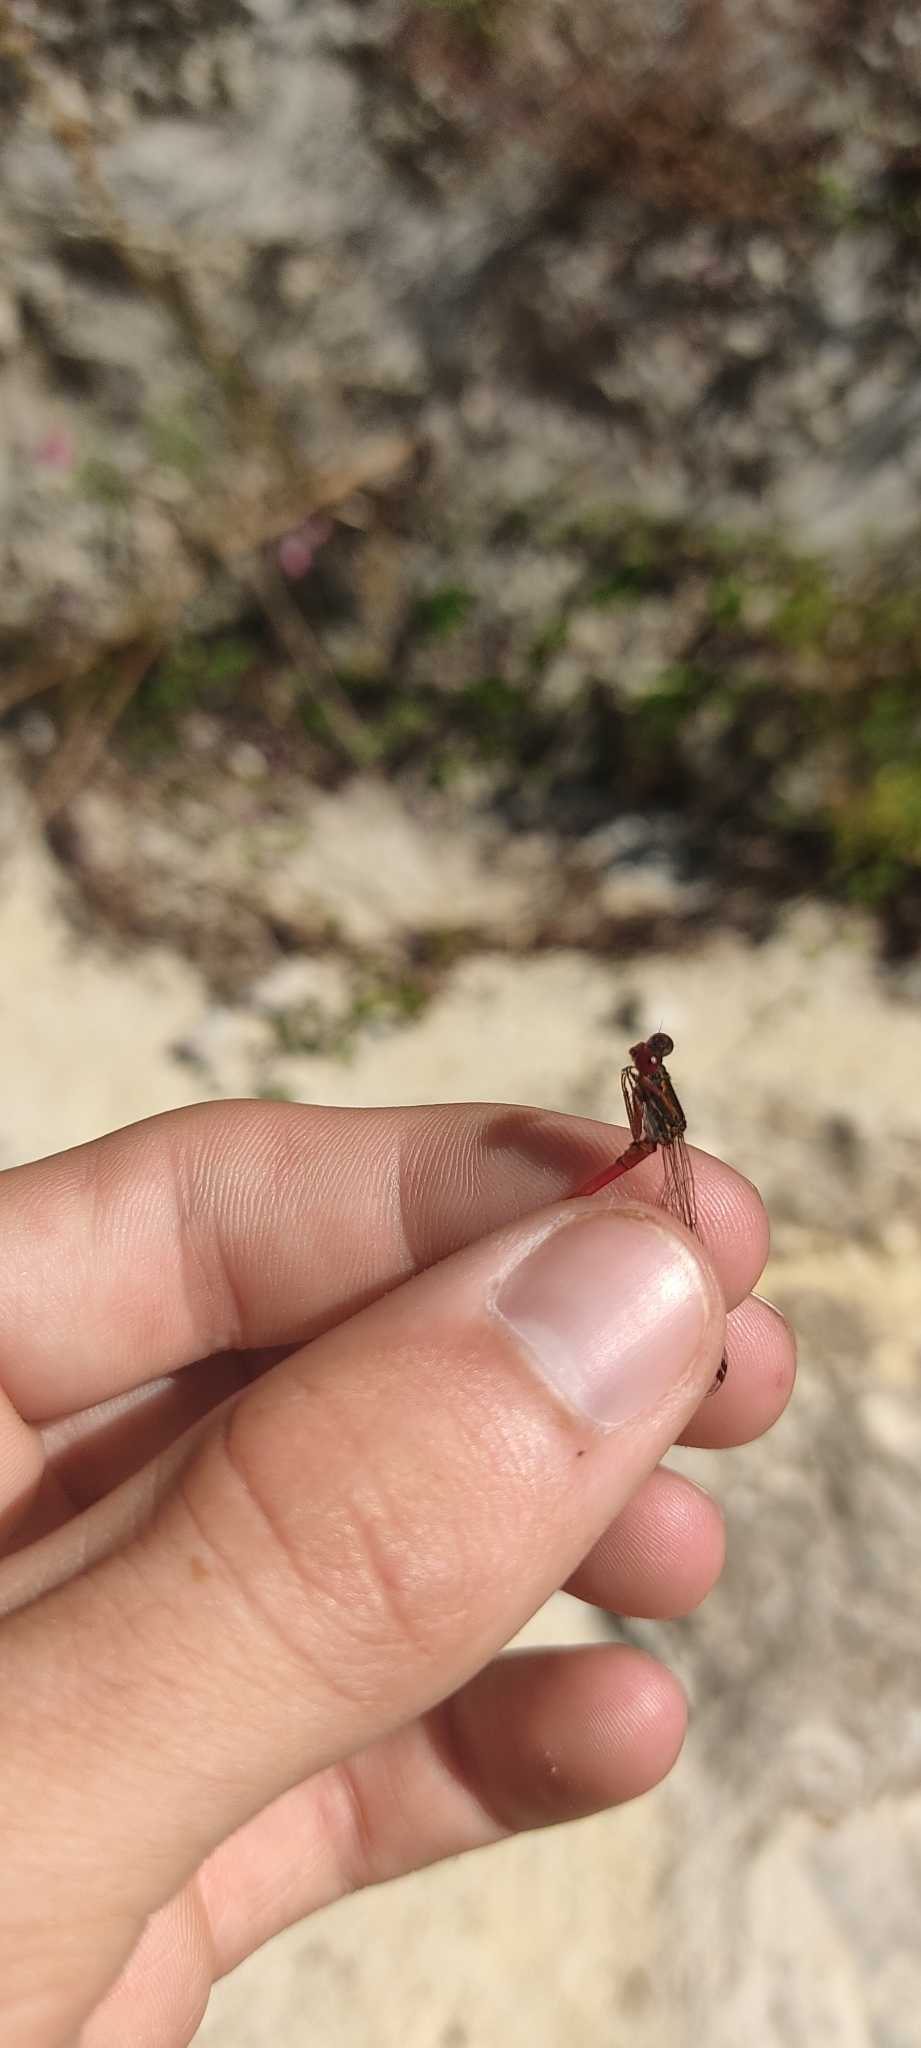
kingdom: Animalia
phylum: Arthropoda
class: Insecta
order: Odonata
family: Coenagrionidae
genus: Ceriagrion
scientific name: Ceriagrion tenellum
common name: Small red damselfly
